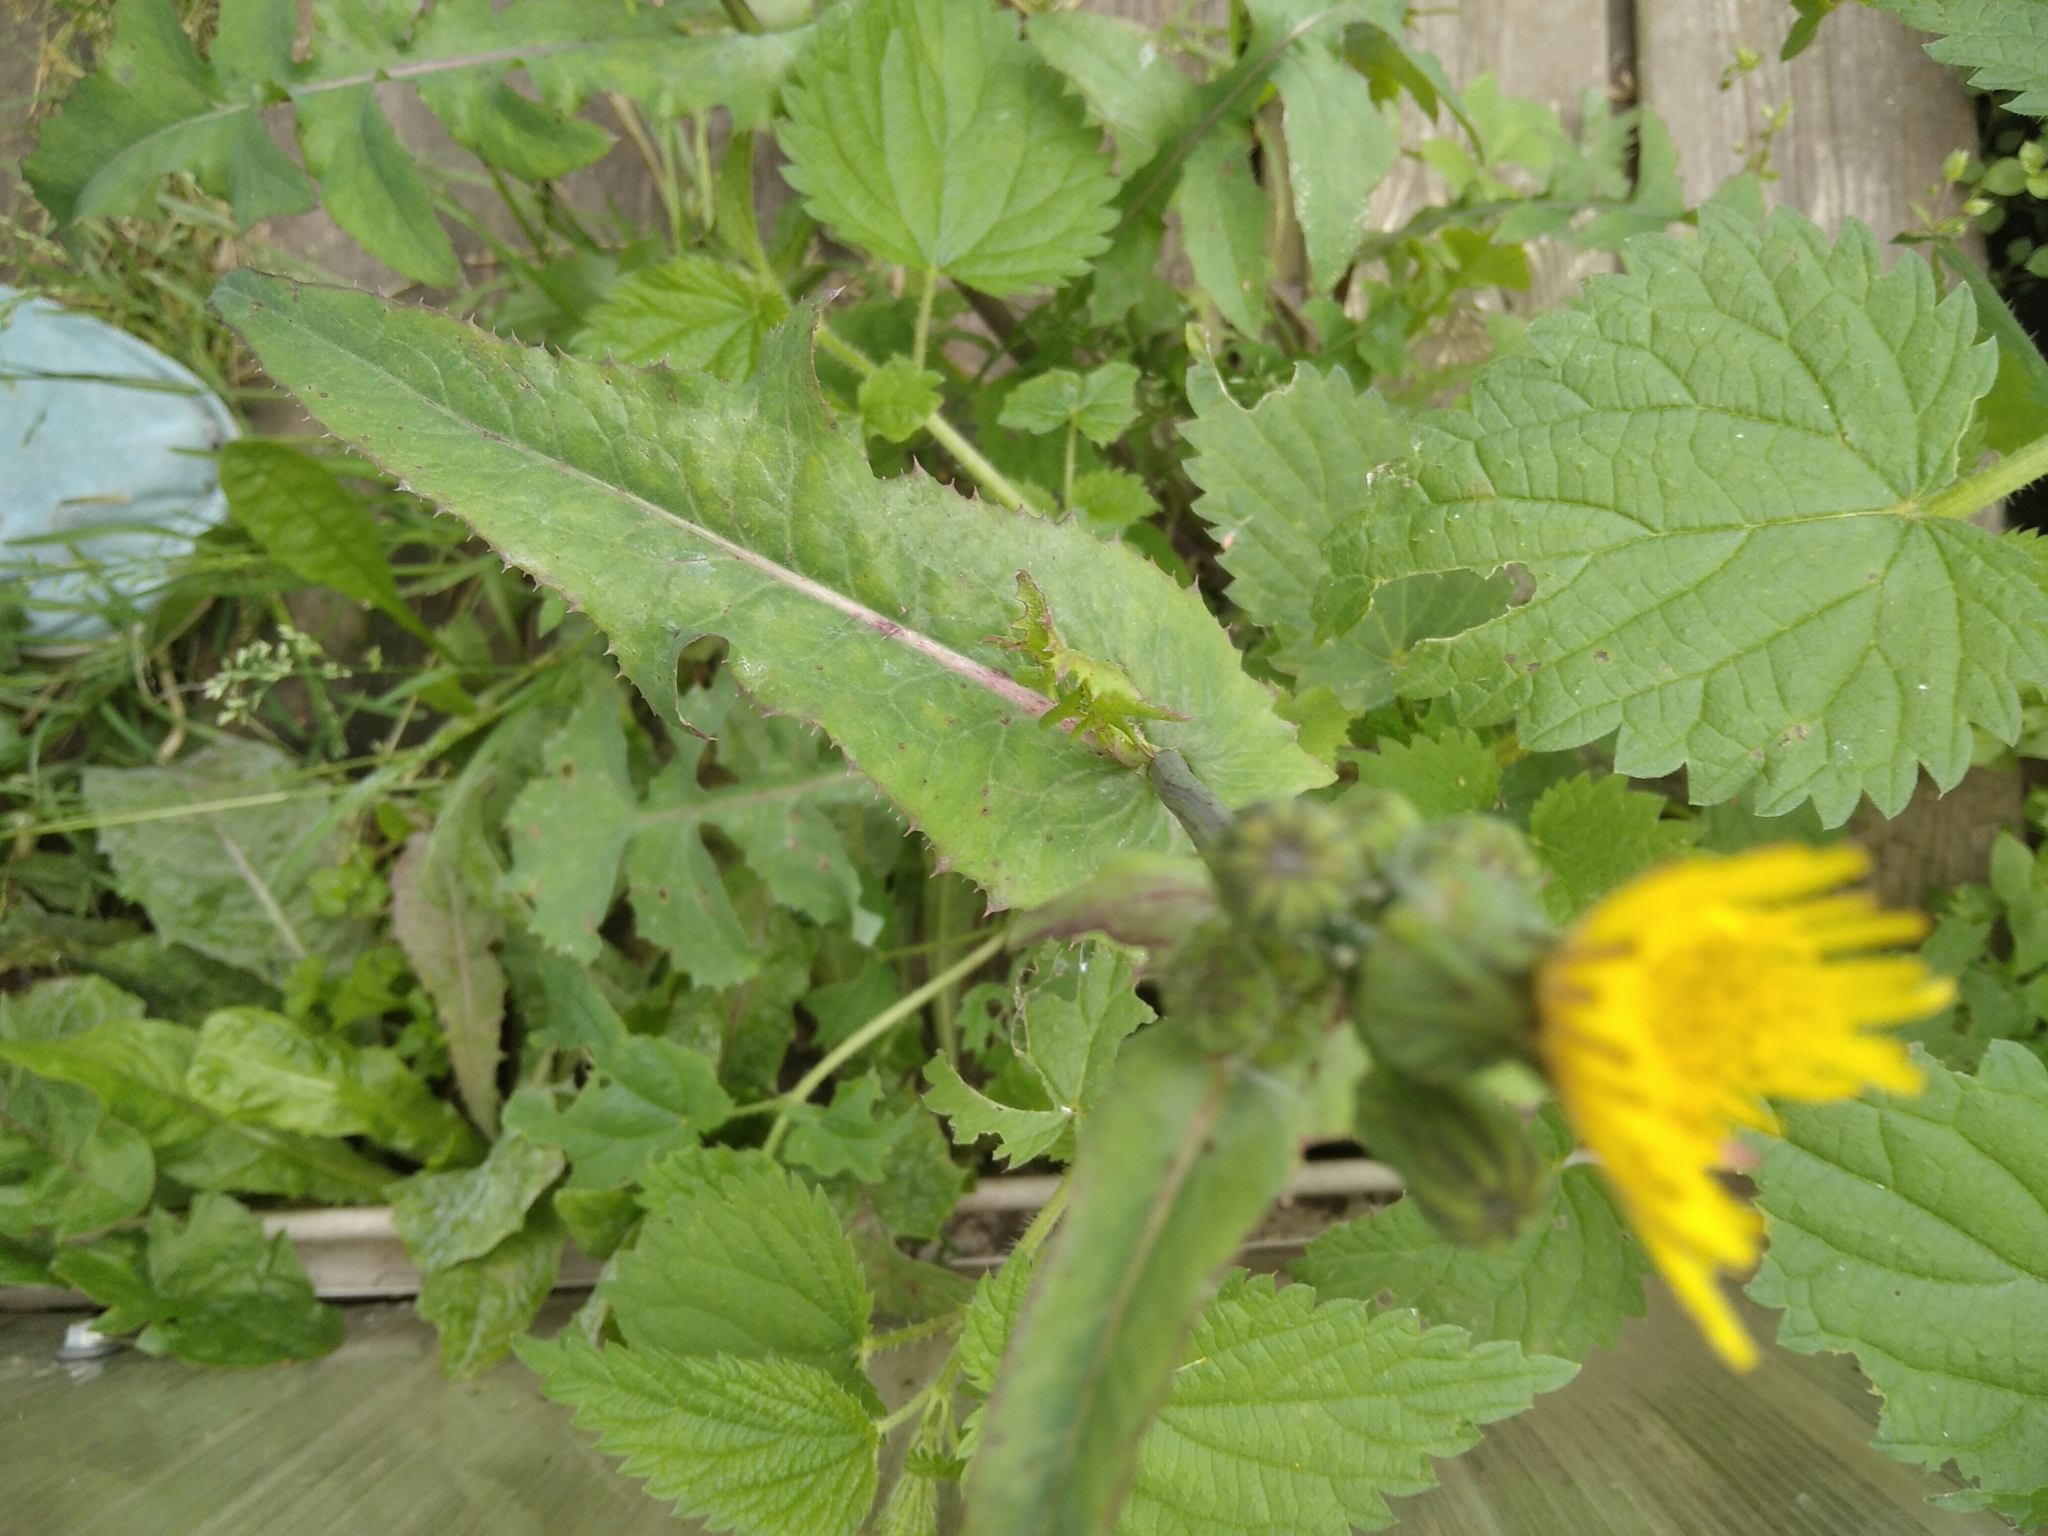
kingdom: Plantae
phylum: Tracheophyta
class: Magnoliopsida
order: Asterales
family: Asteraceae
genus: Sonchus
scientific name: Sonchus oleraceus
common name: Common sowthistle
